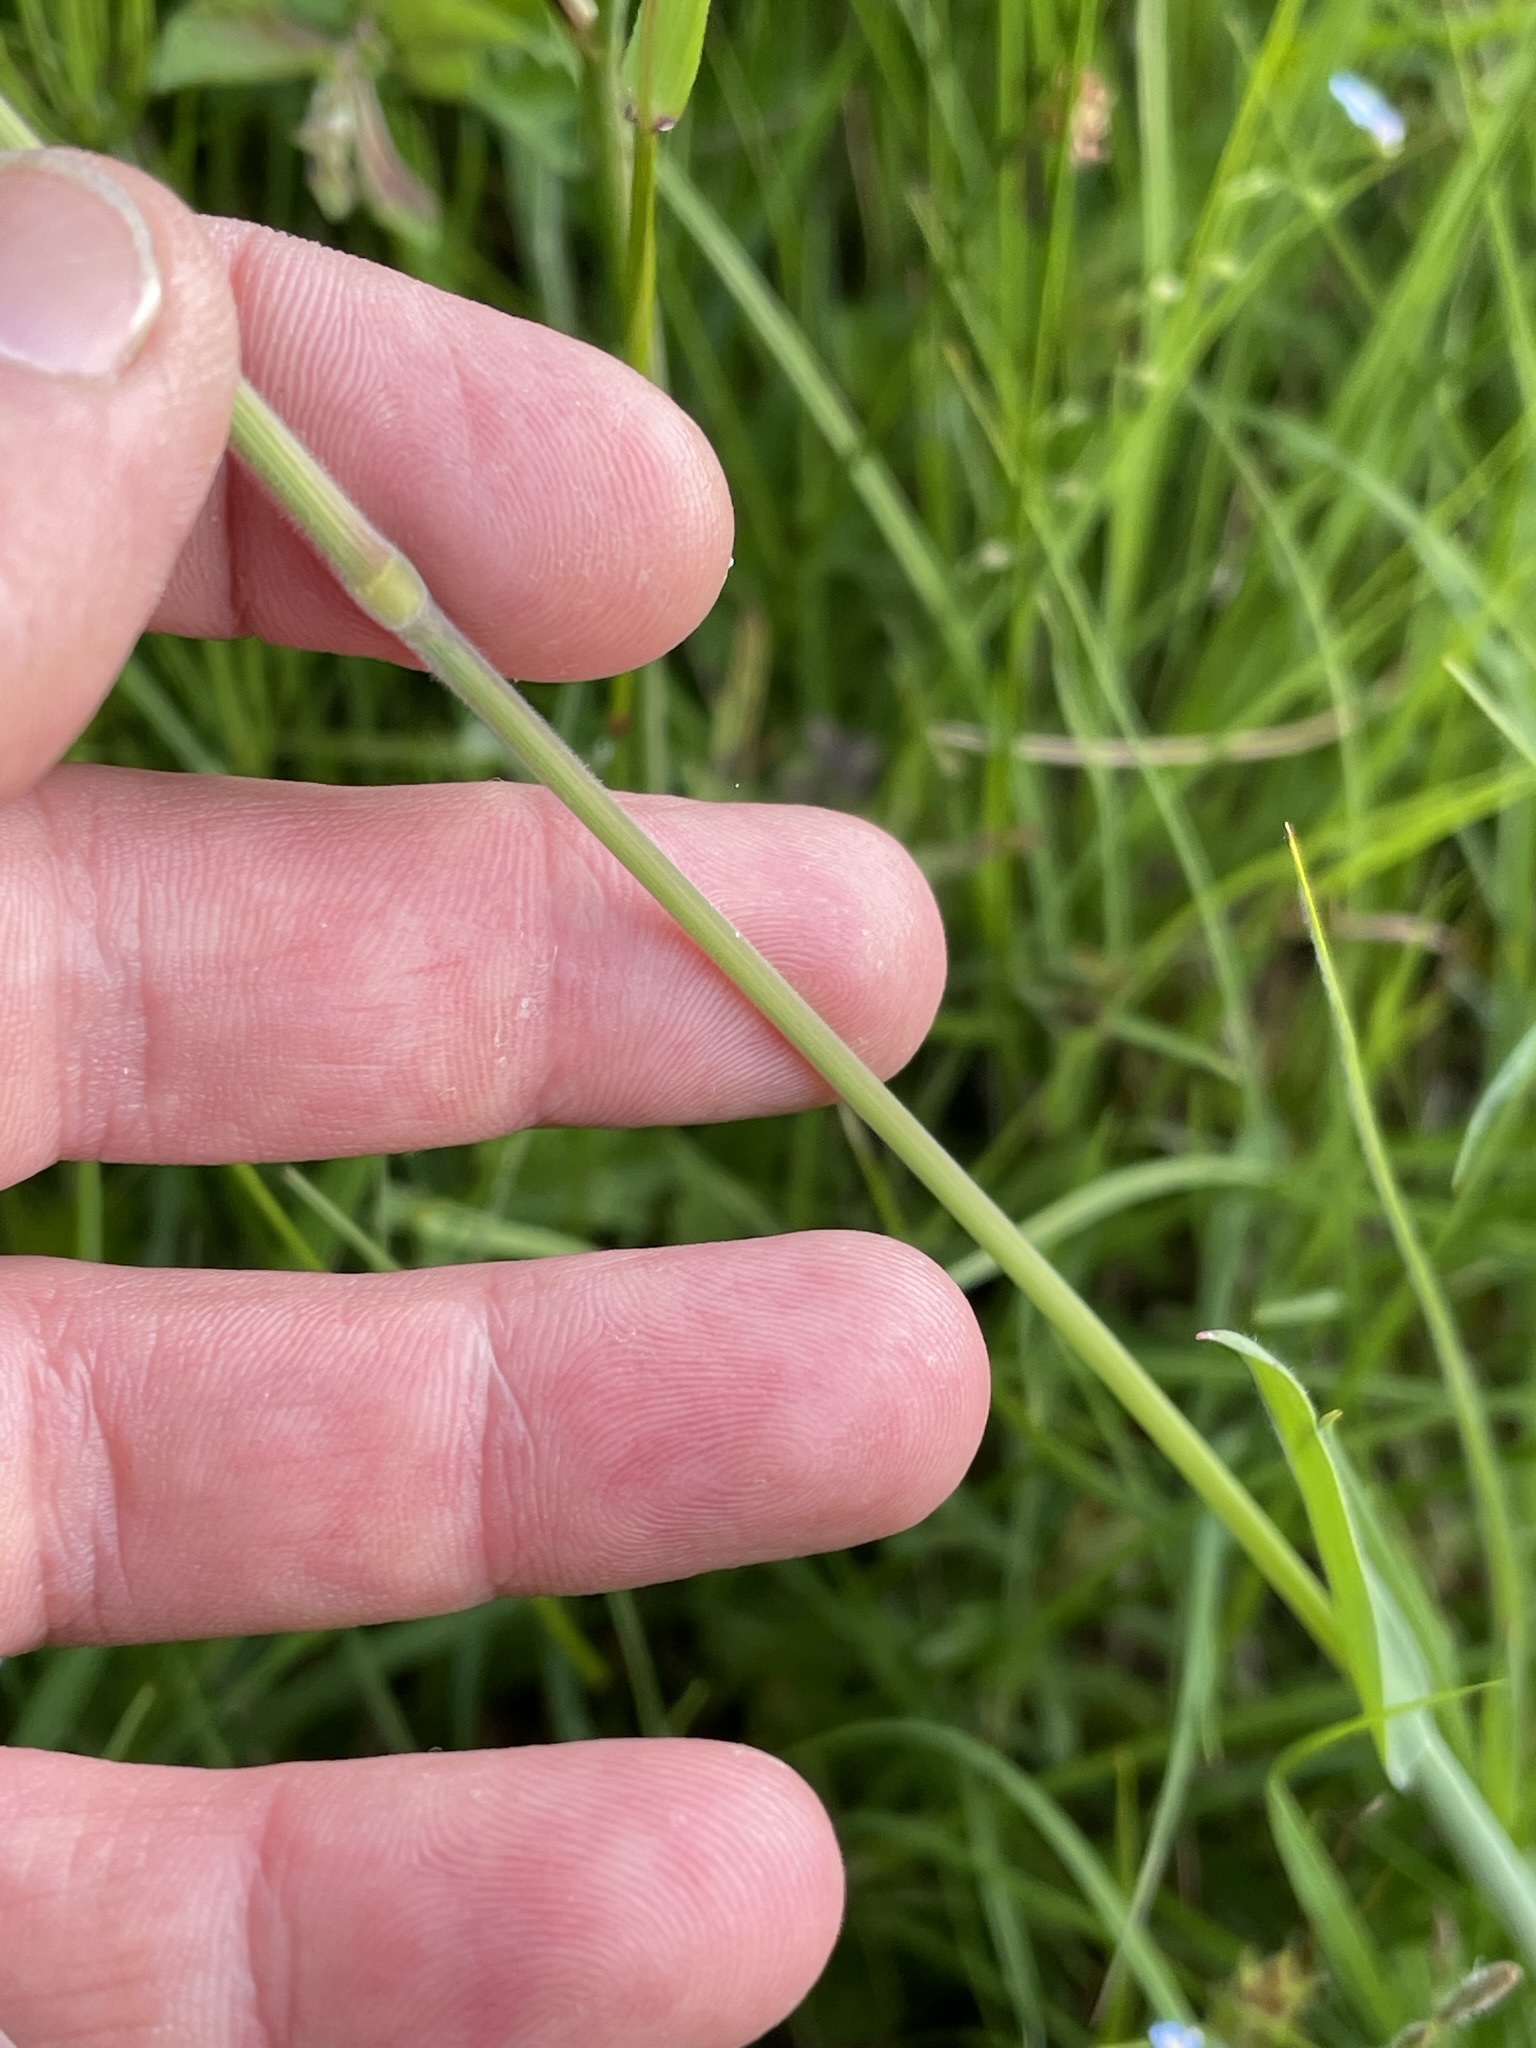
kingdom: Plantae
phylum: Tracheophyta
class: Liliopsida
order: Poales
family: Poaceae
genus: Holcus
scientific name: Holcus lanatus
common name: Yorkshire-fog
